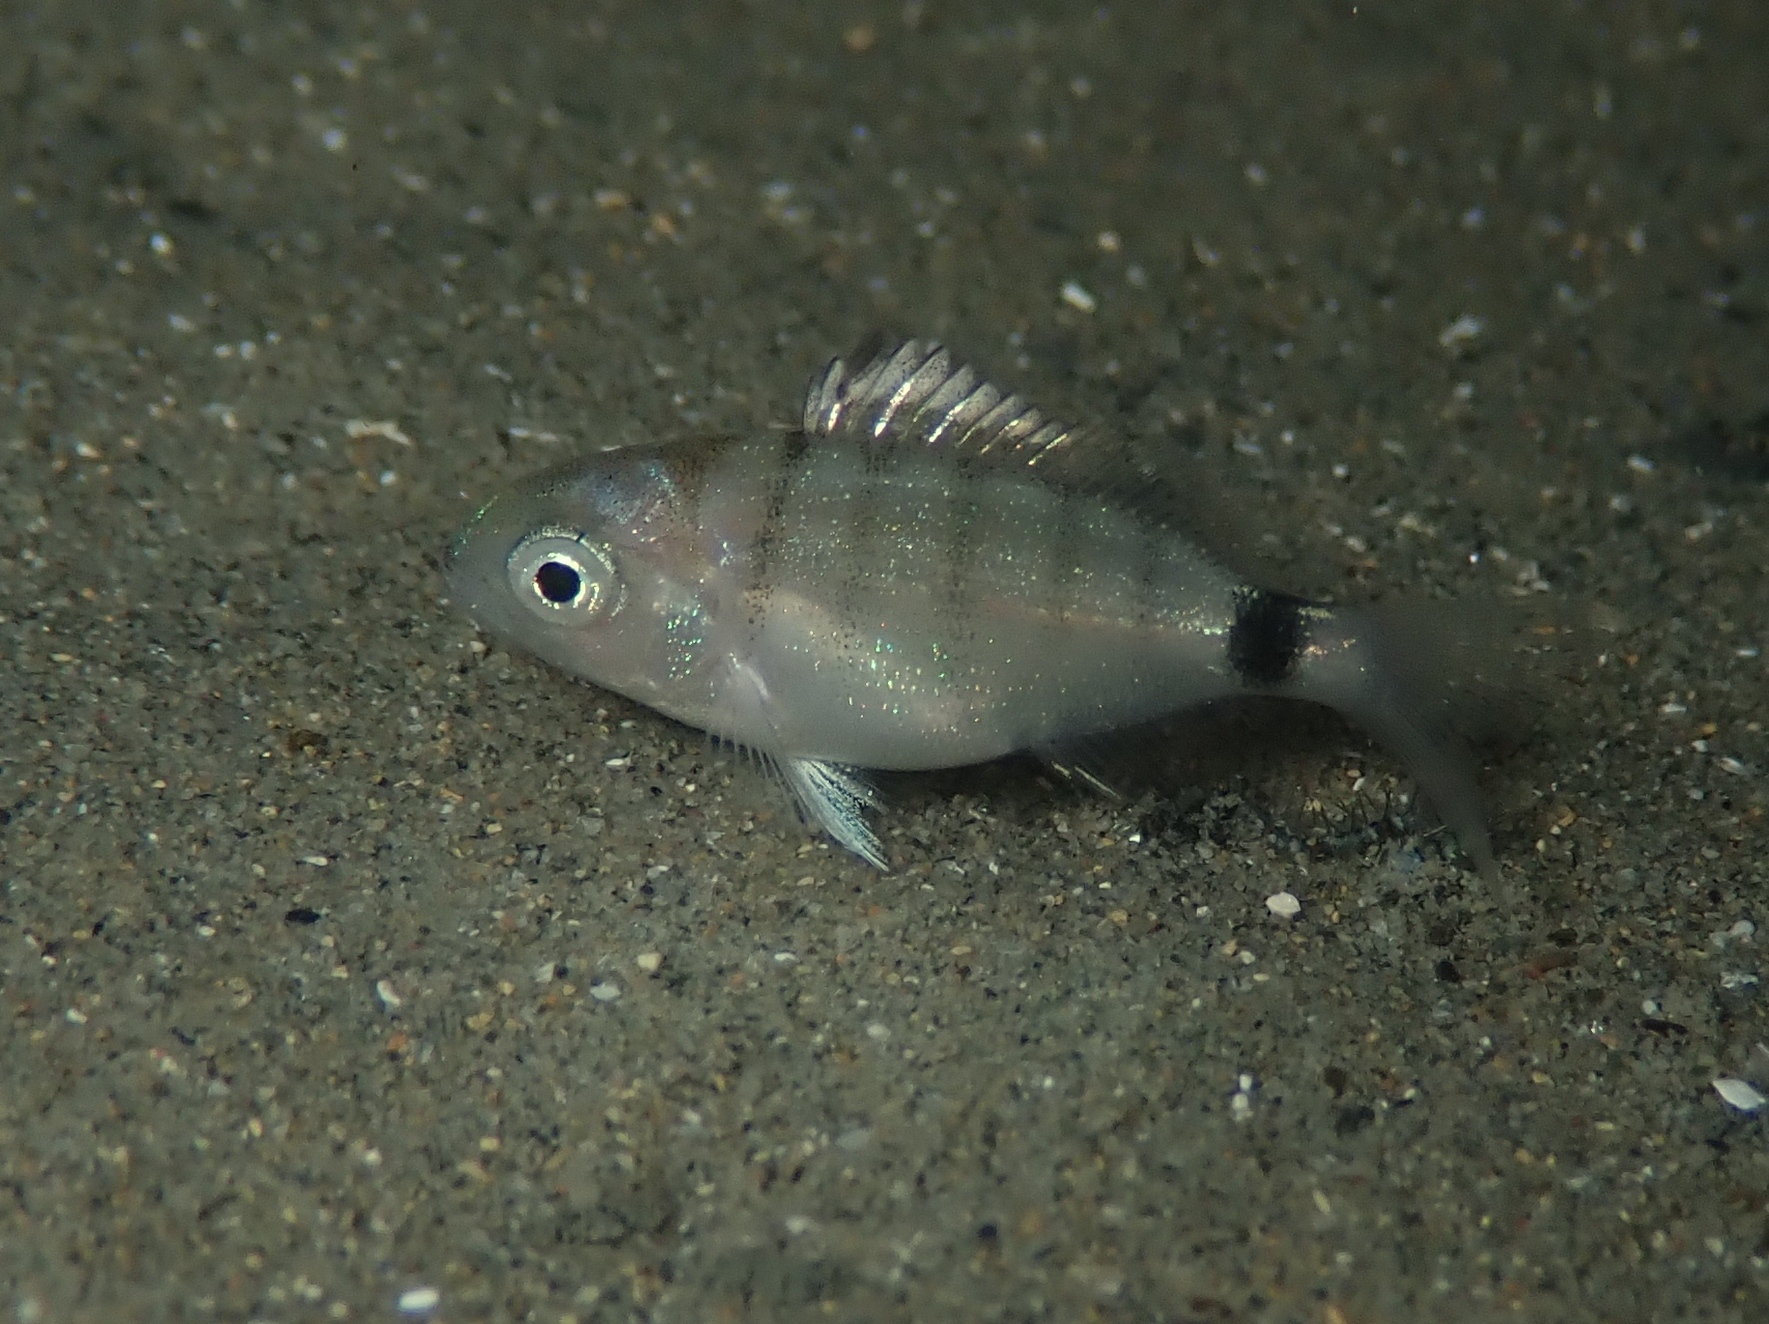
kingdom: Animalia
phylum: Chordata
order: Perciformes
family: Sparidae
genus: Diplodus
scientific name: Diplodus sargus
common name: White seabream
